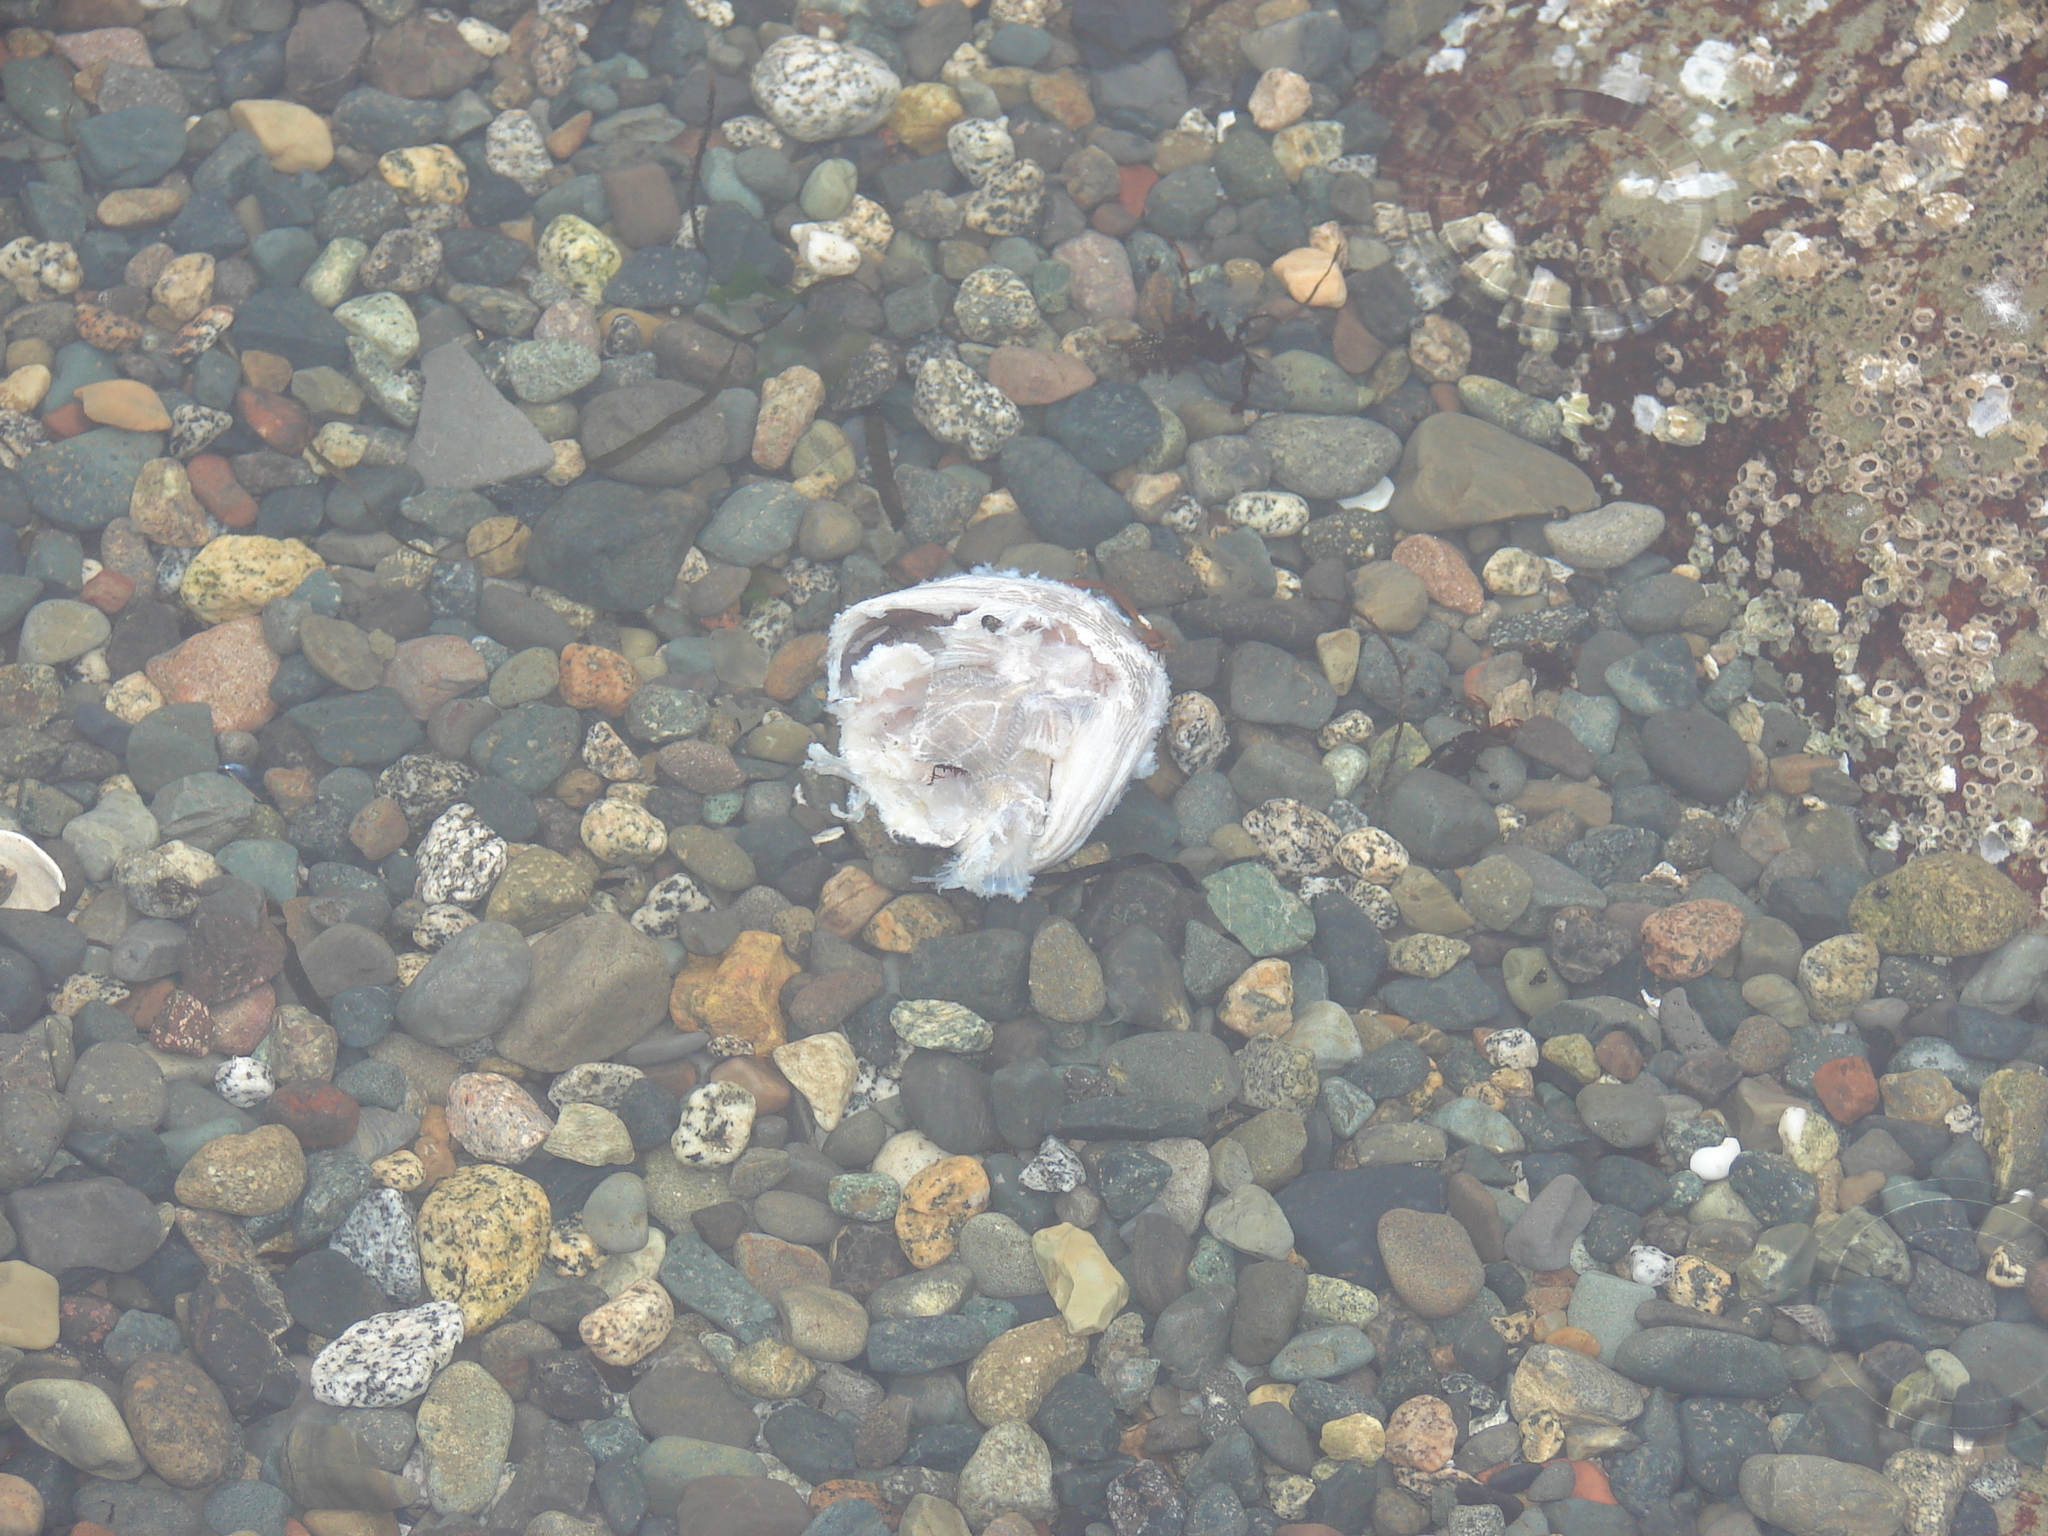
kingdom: Animalia
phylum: Chordata
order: Batrachoidiformes
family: Batrachoididae
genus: Porichthys
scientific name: Porichthys notatus
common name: Plainfin midshipman
